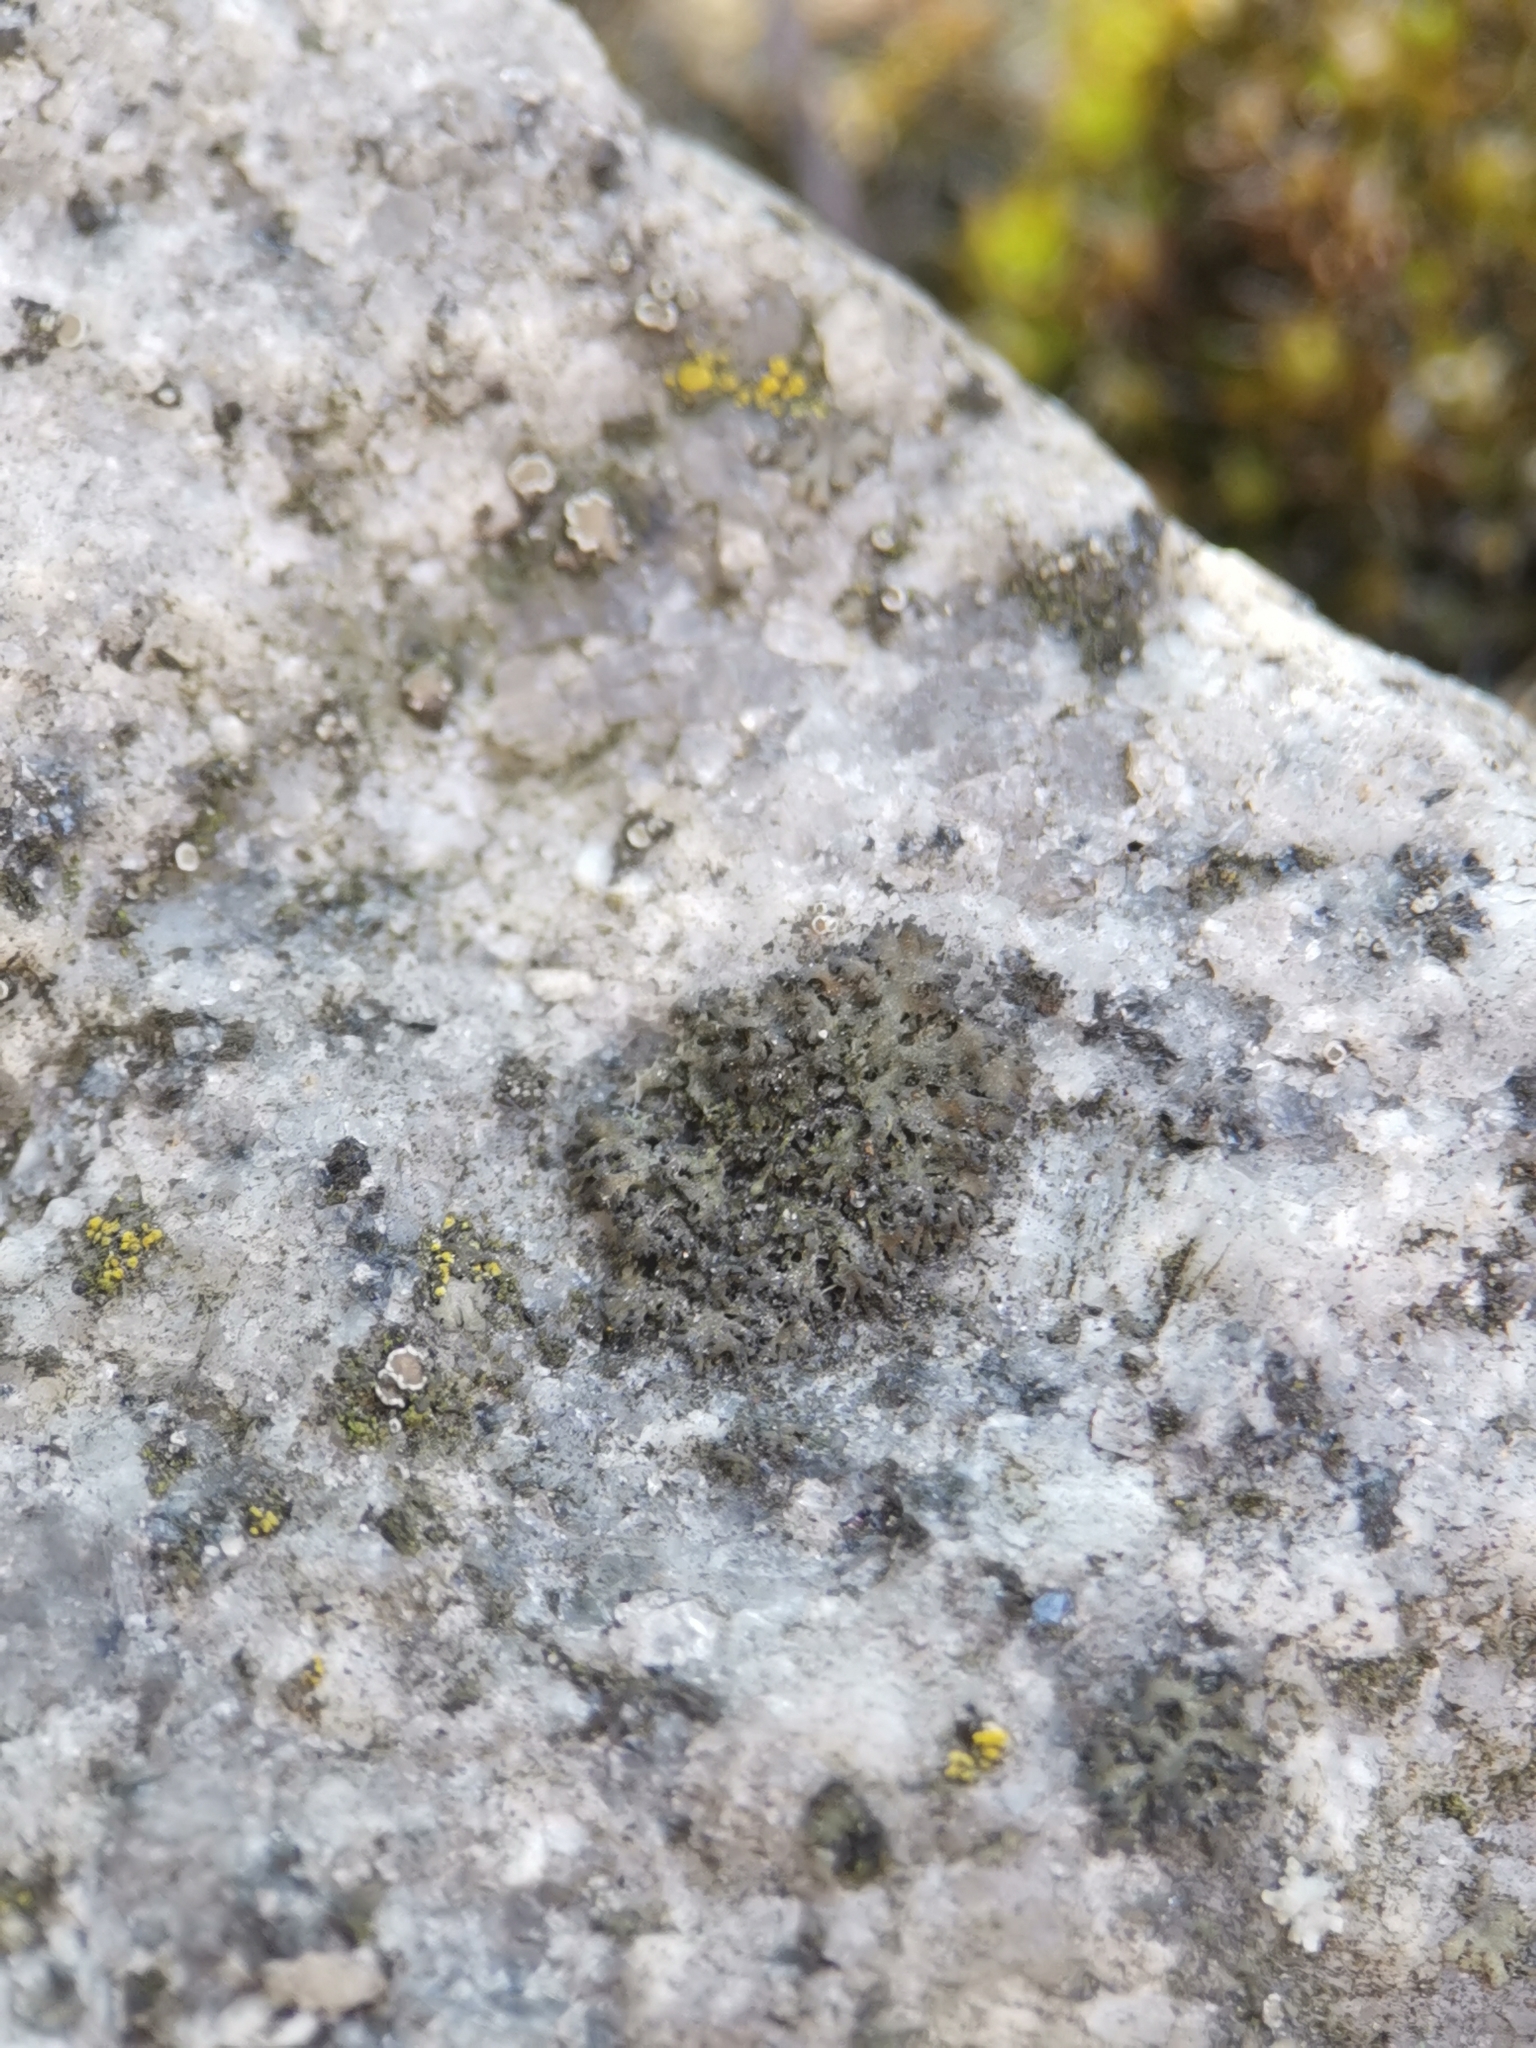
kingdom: Fungi
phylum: Ascomycota
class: Lecanoromycetes
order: Caliciales
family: Physciaceae
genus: Physciella
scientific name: Physciella nigricans
